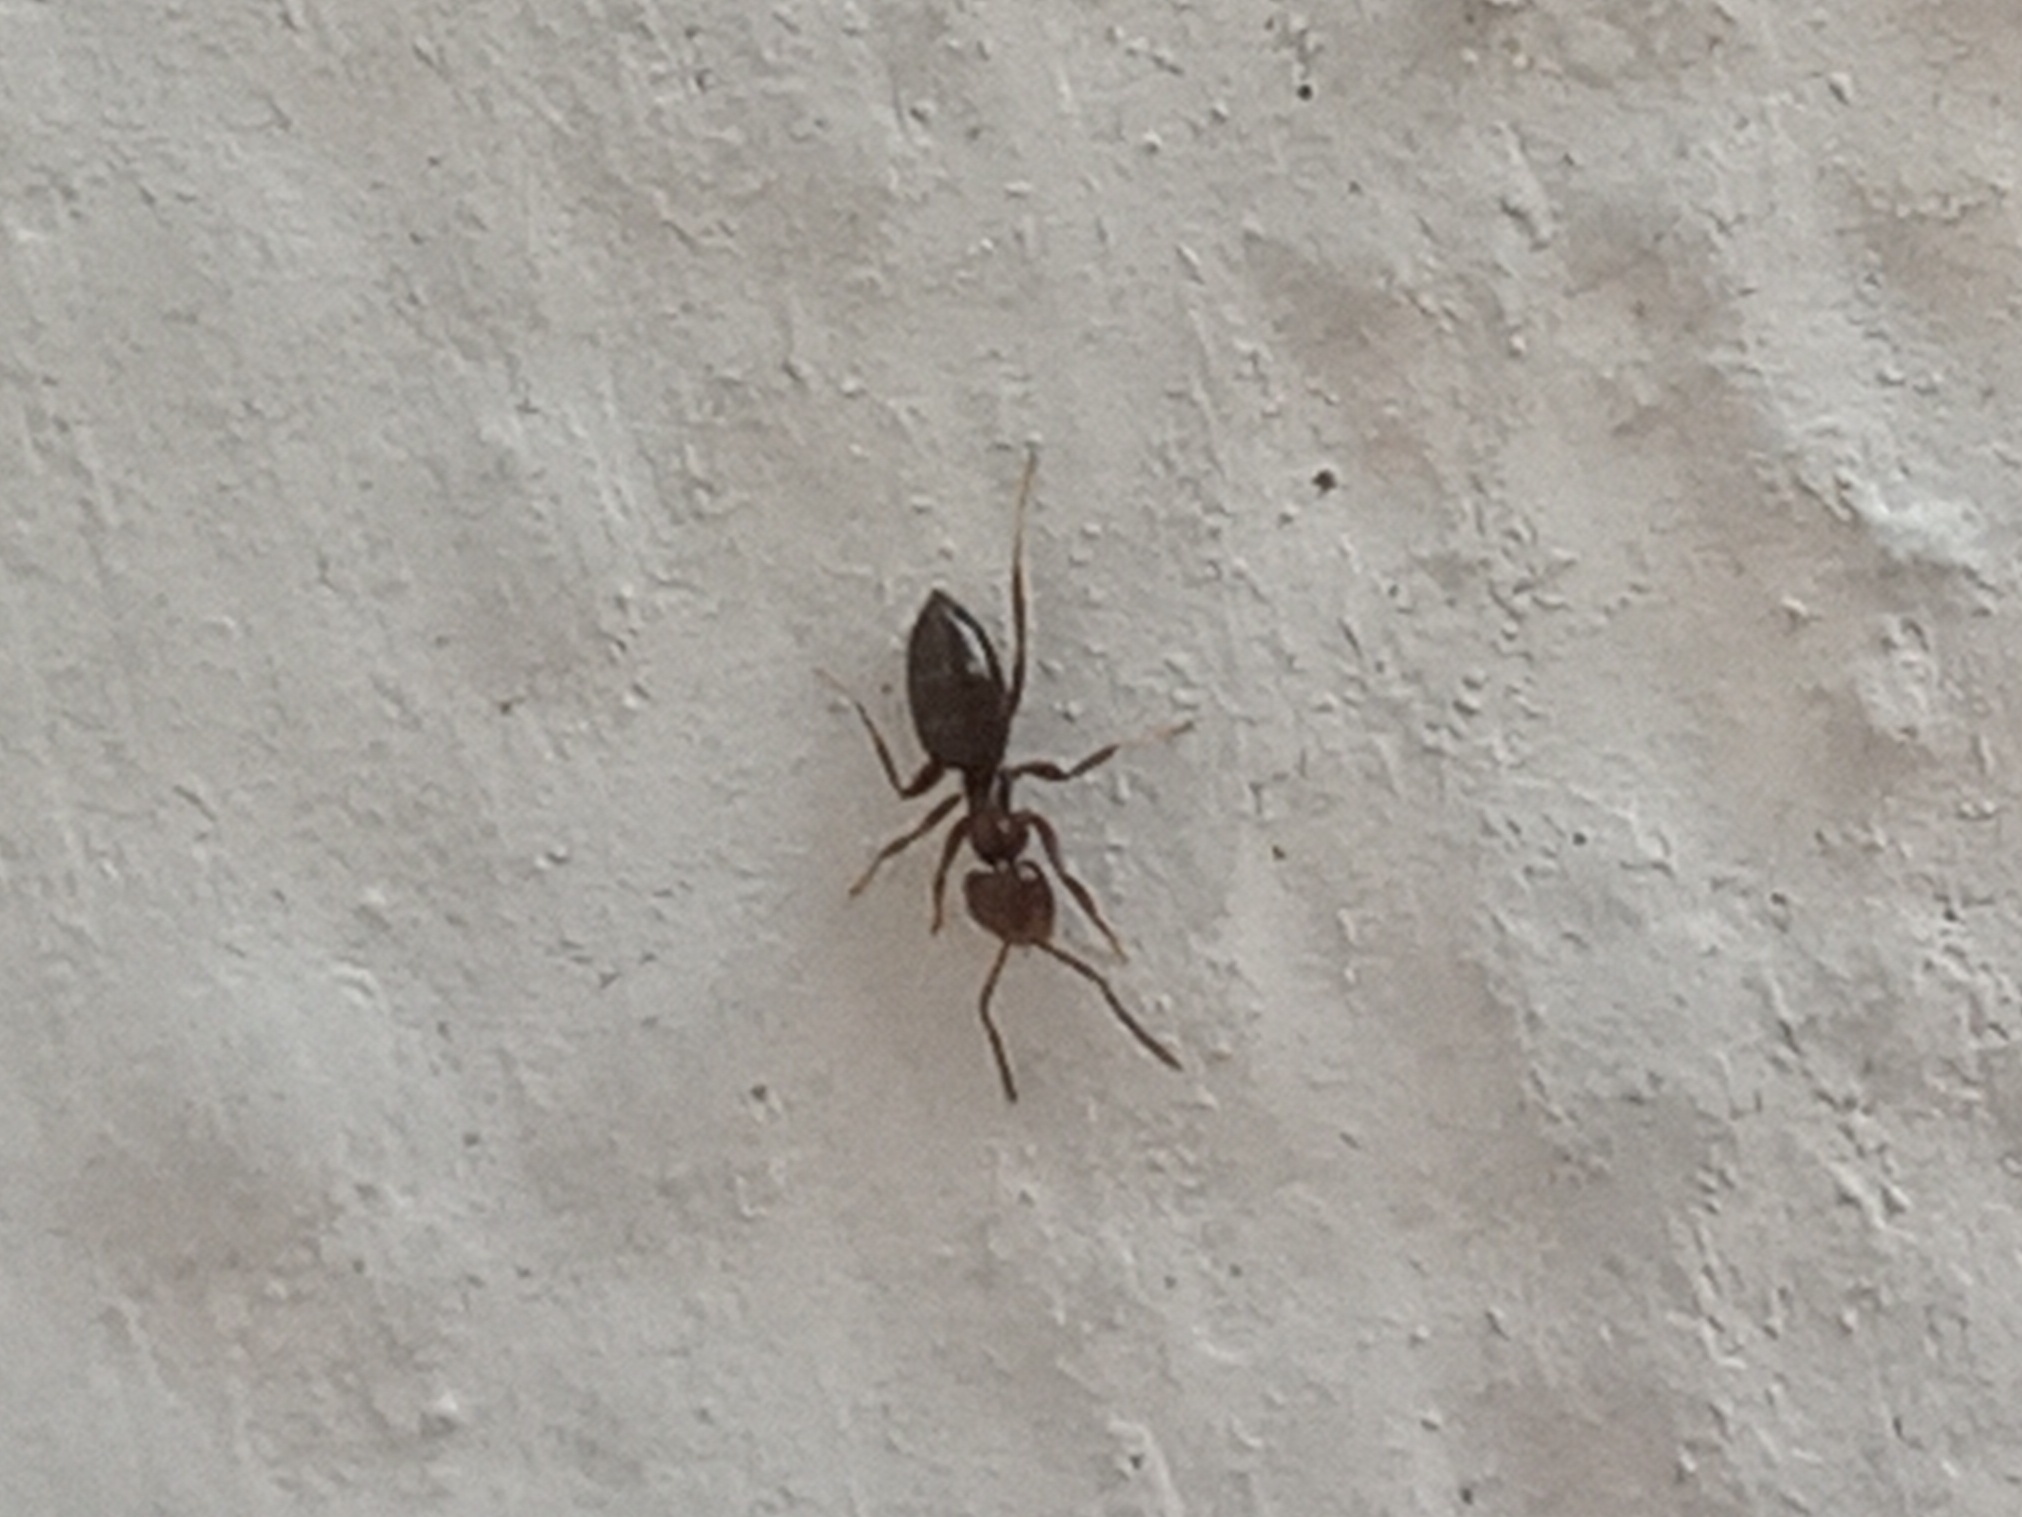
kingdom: Animalia
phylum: Arthropoda
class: Insecta
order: Hymenoptera
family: Formicidae
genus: Brachymyrmex
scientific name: Brachymyrmex patagonicus
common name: Dark rover ant
